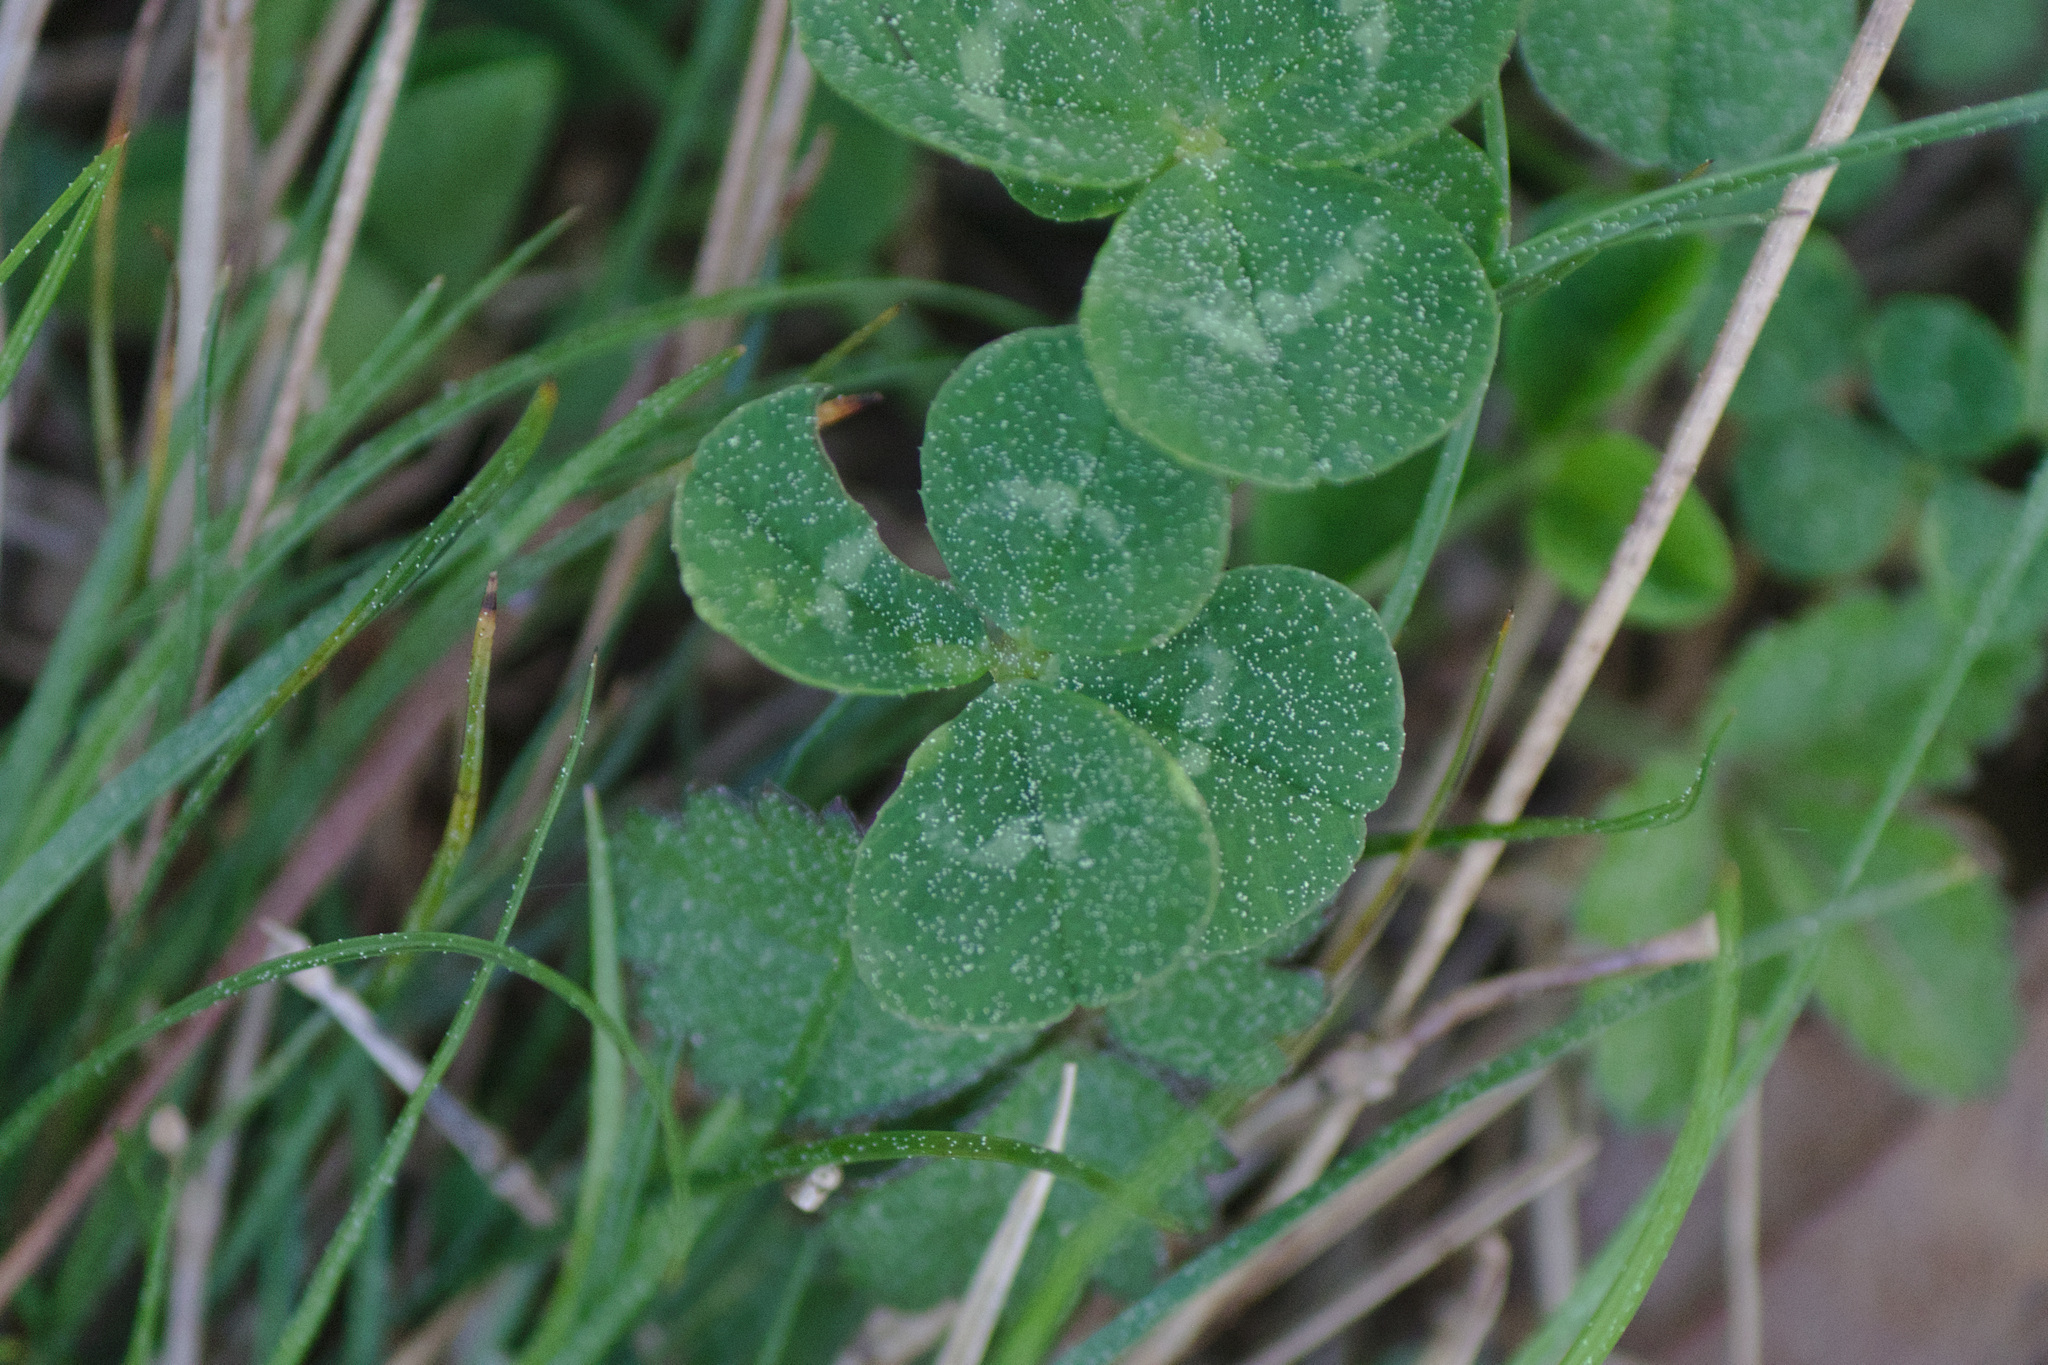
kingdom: Plantae
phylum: Tracheophyta
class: Magnoliopsida
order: Fabales
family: Fabaceae
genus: Trifolium
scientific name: Trifolium repens
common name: White clover
